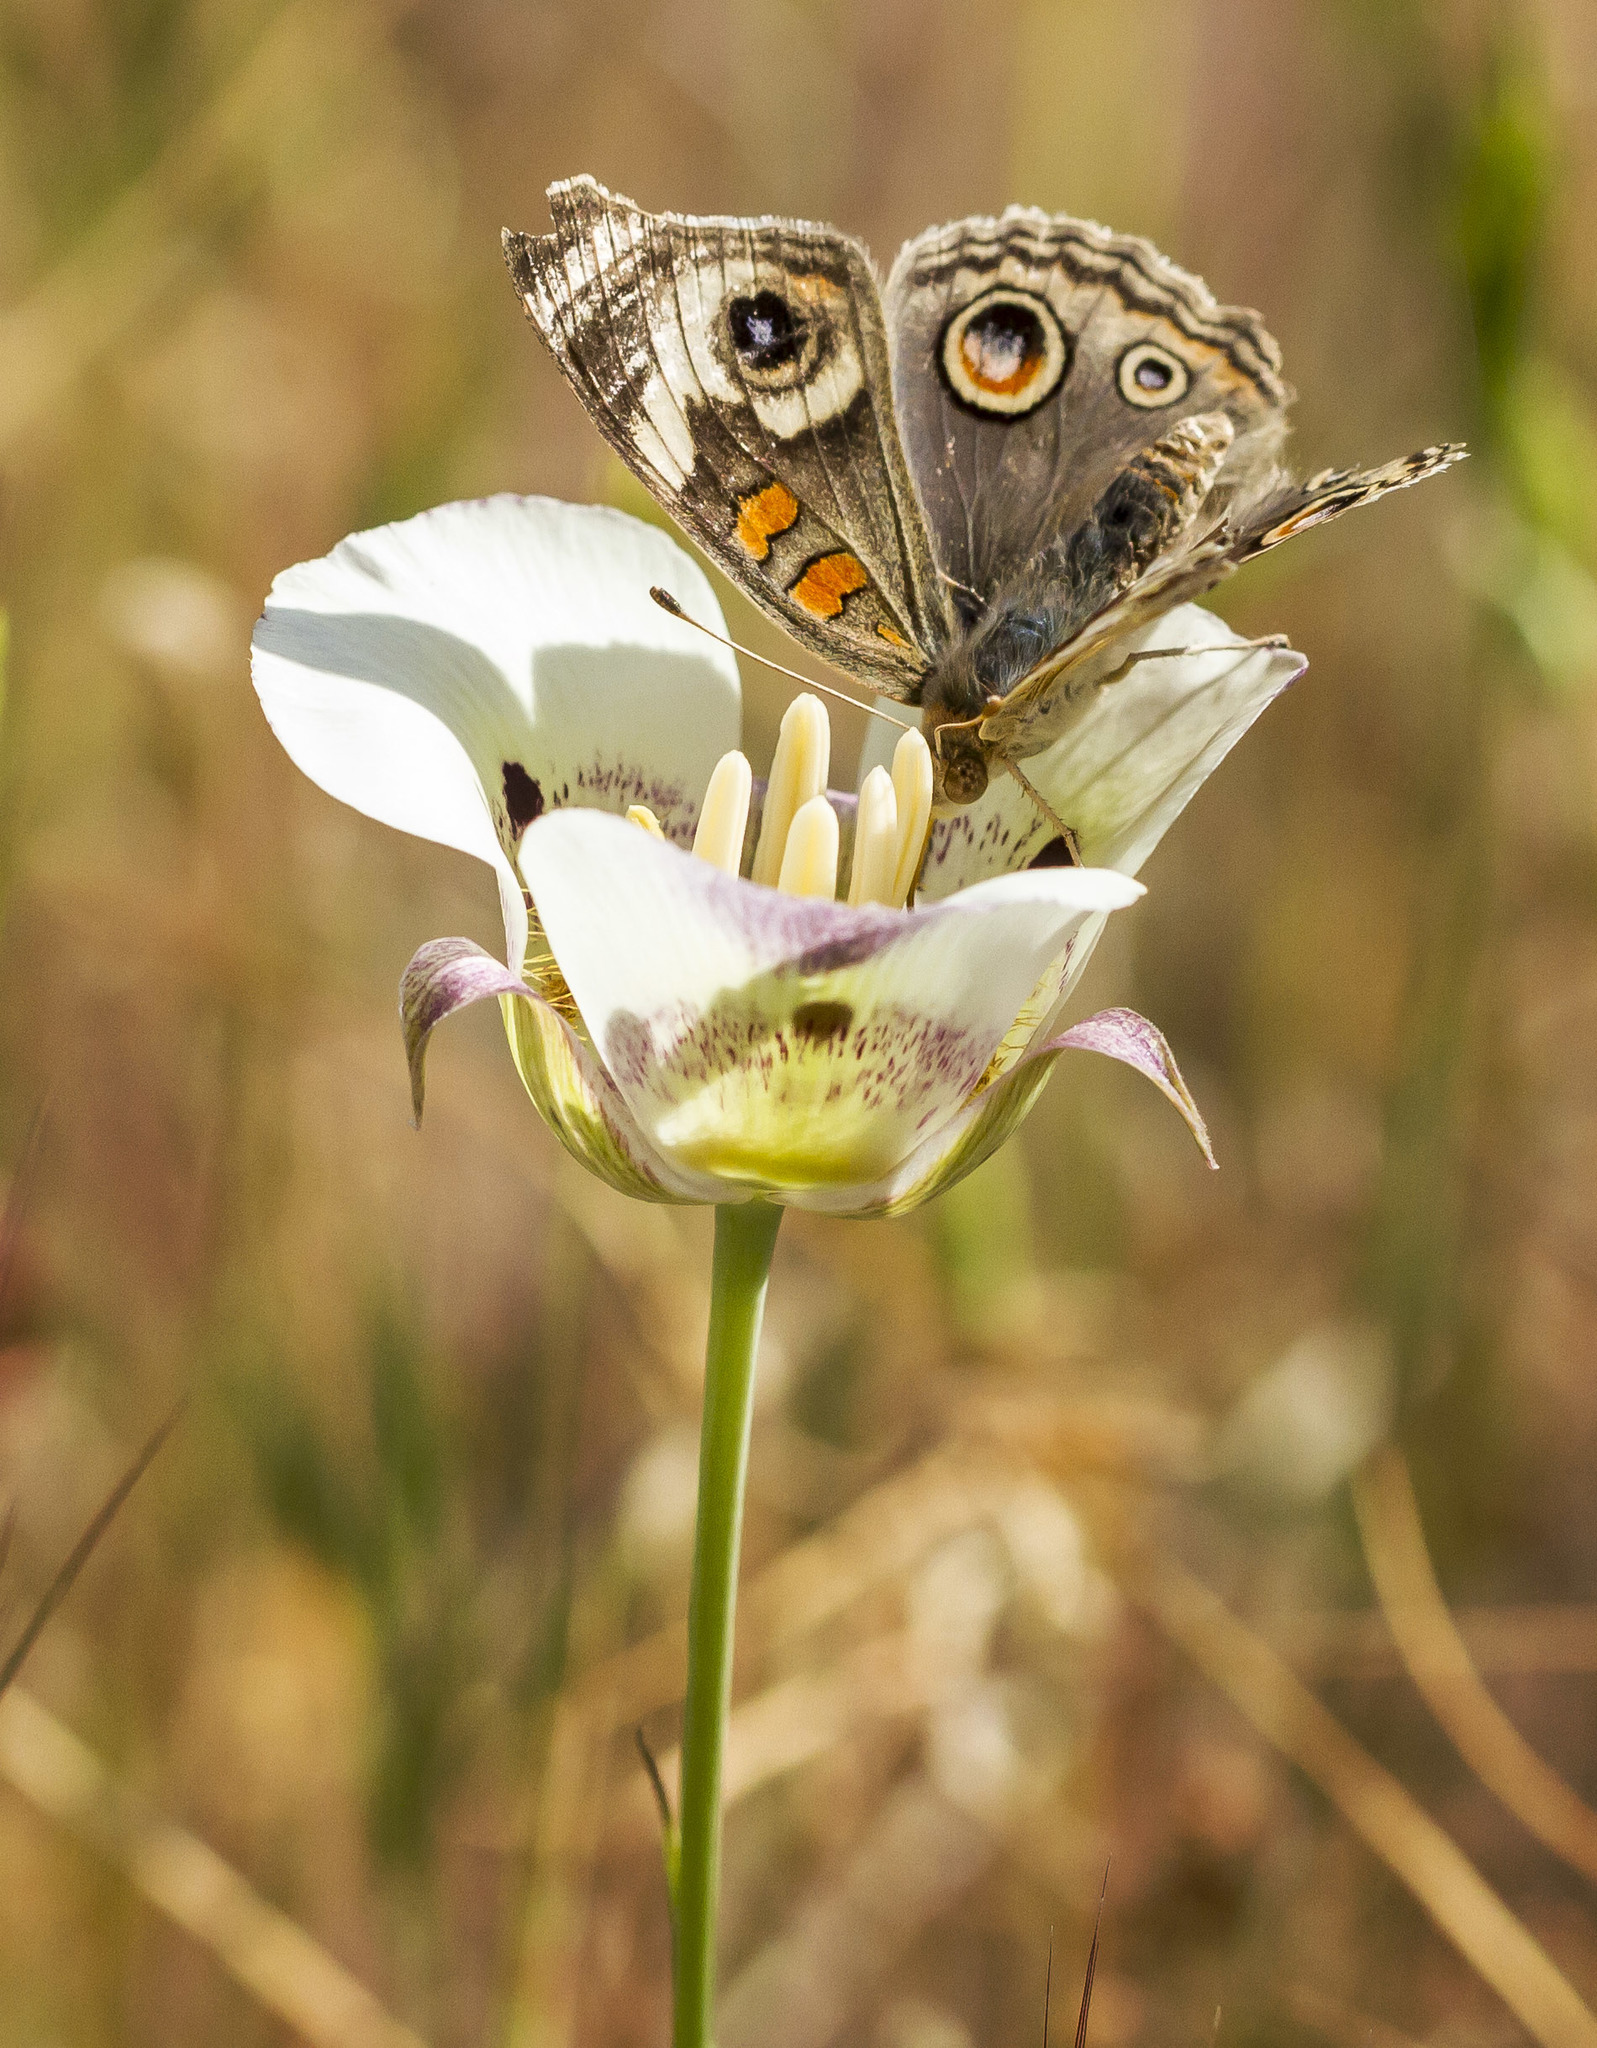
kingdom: Animalia
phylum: Arthropoda
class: Insecta
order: Lepidoptera
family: Nymphalidae
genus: Junonia
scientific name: Junonia grisea
